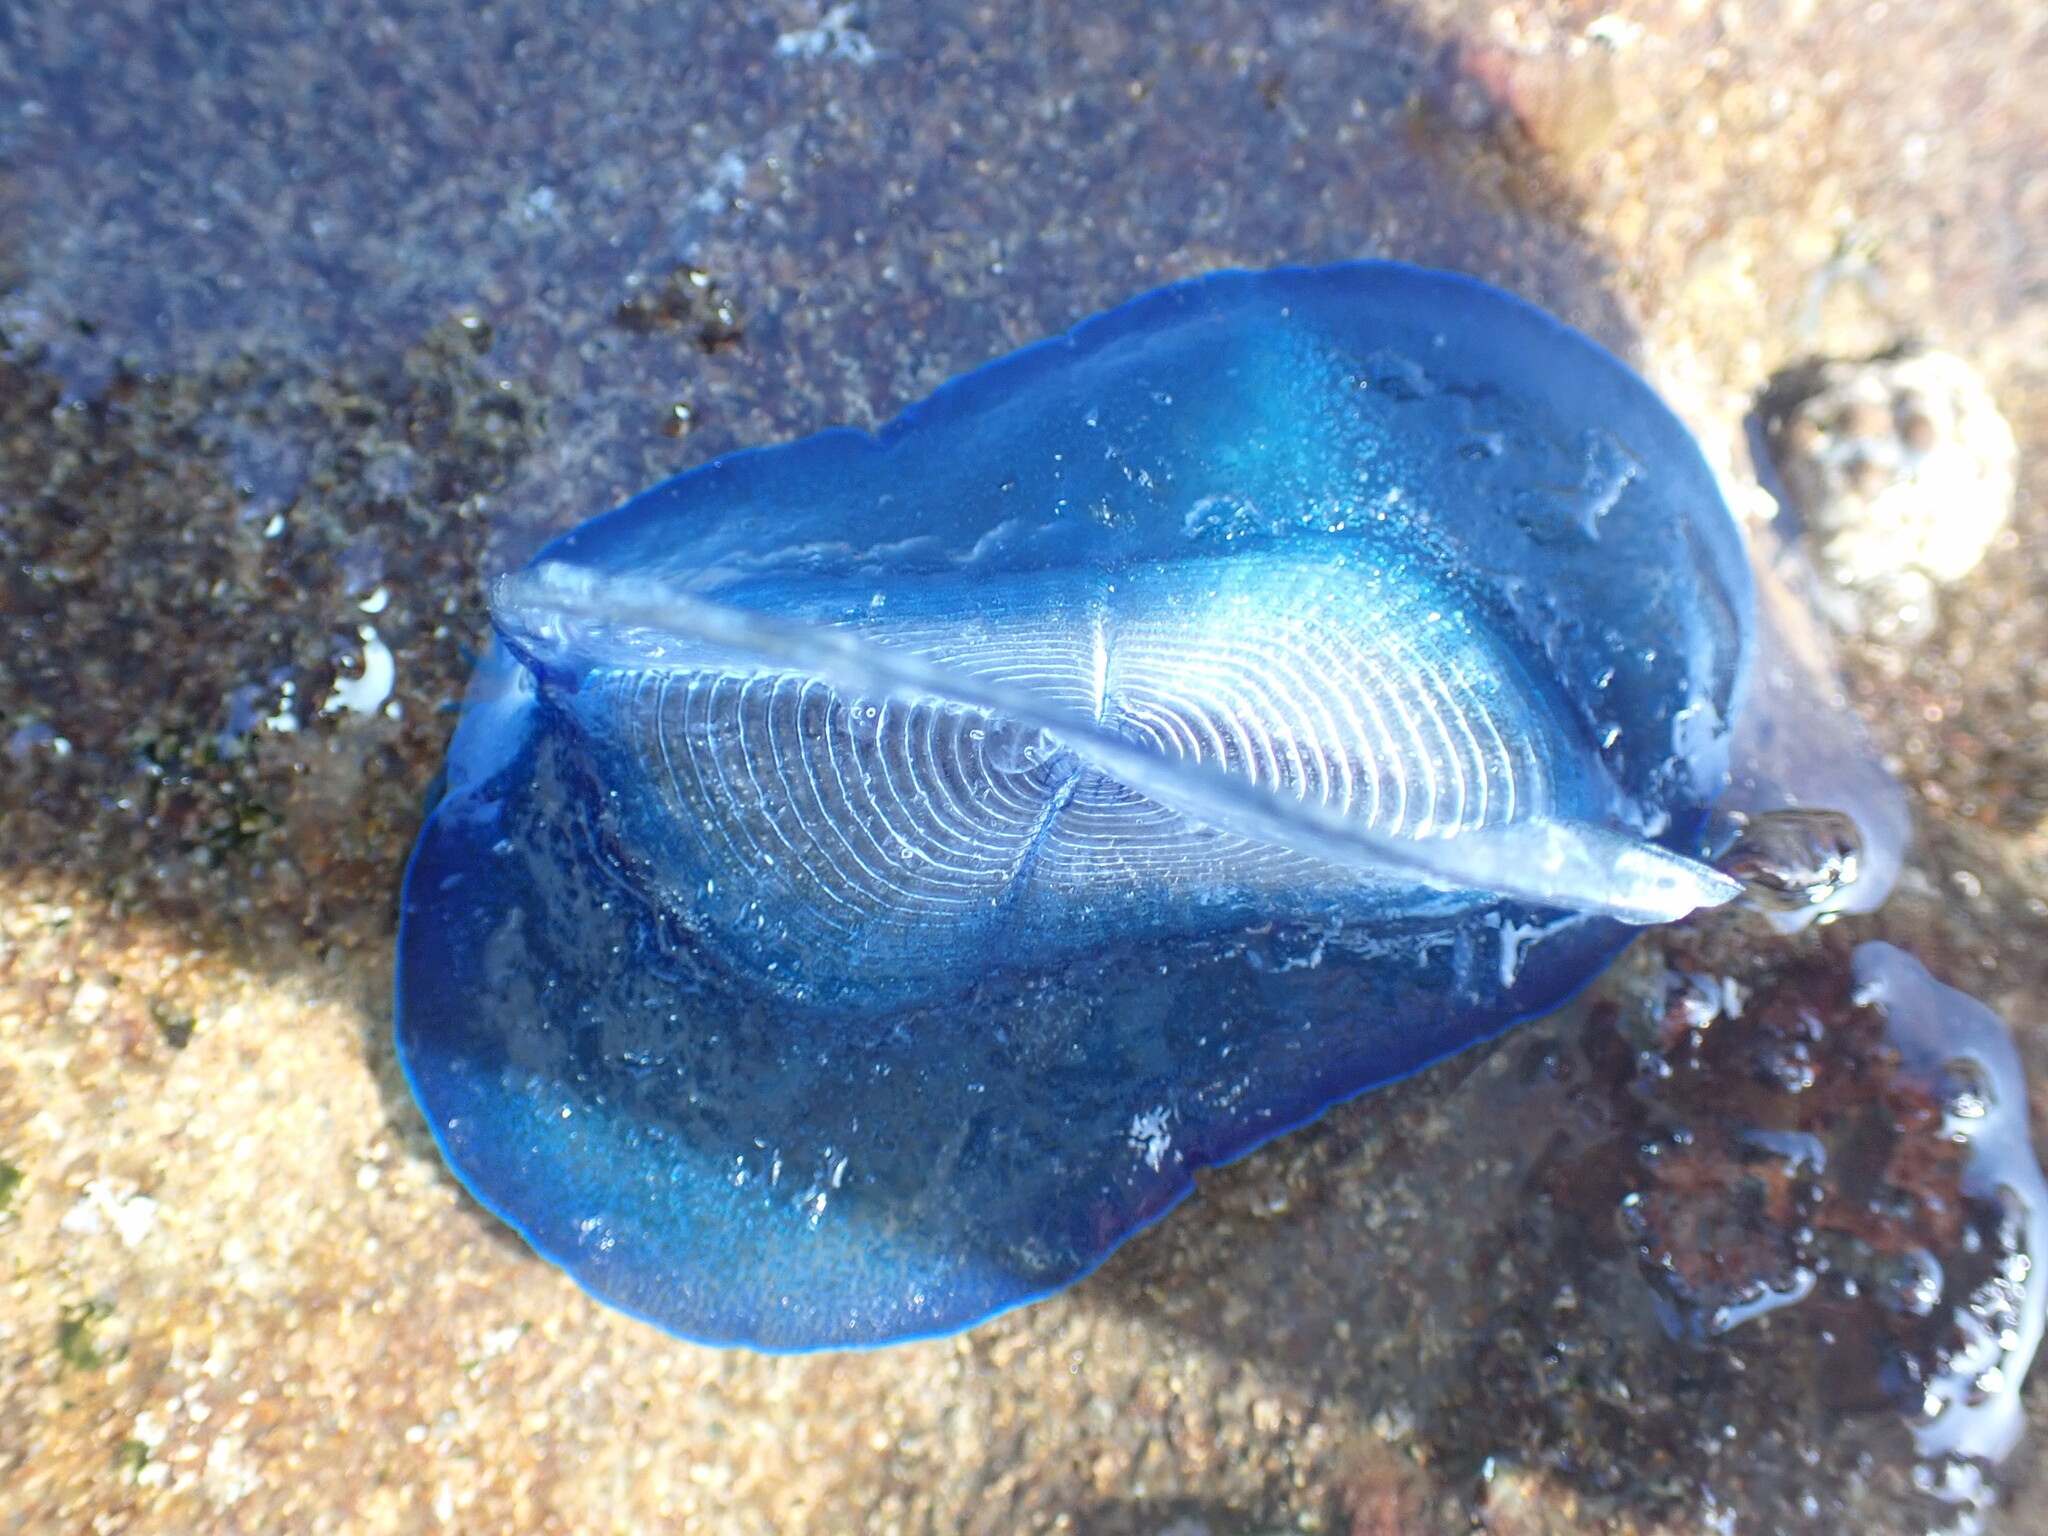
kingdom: Animalia
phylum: Cnidaria
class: Hydrozoa
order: Anthoathecata
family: Porpitidae
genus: Velella
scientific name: Velella velella
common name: By-the-wind-sailor
